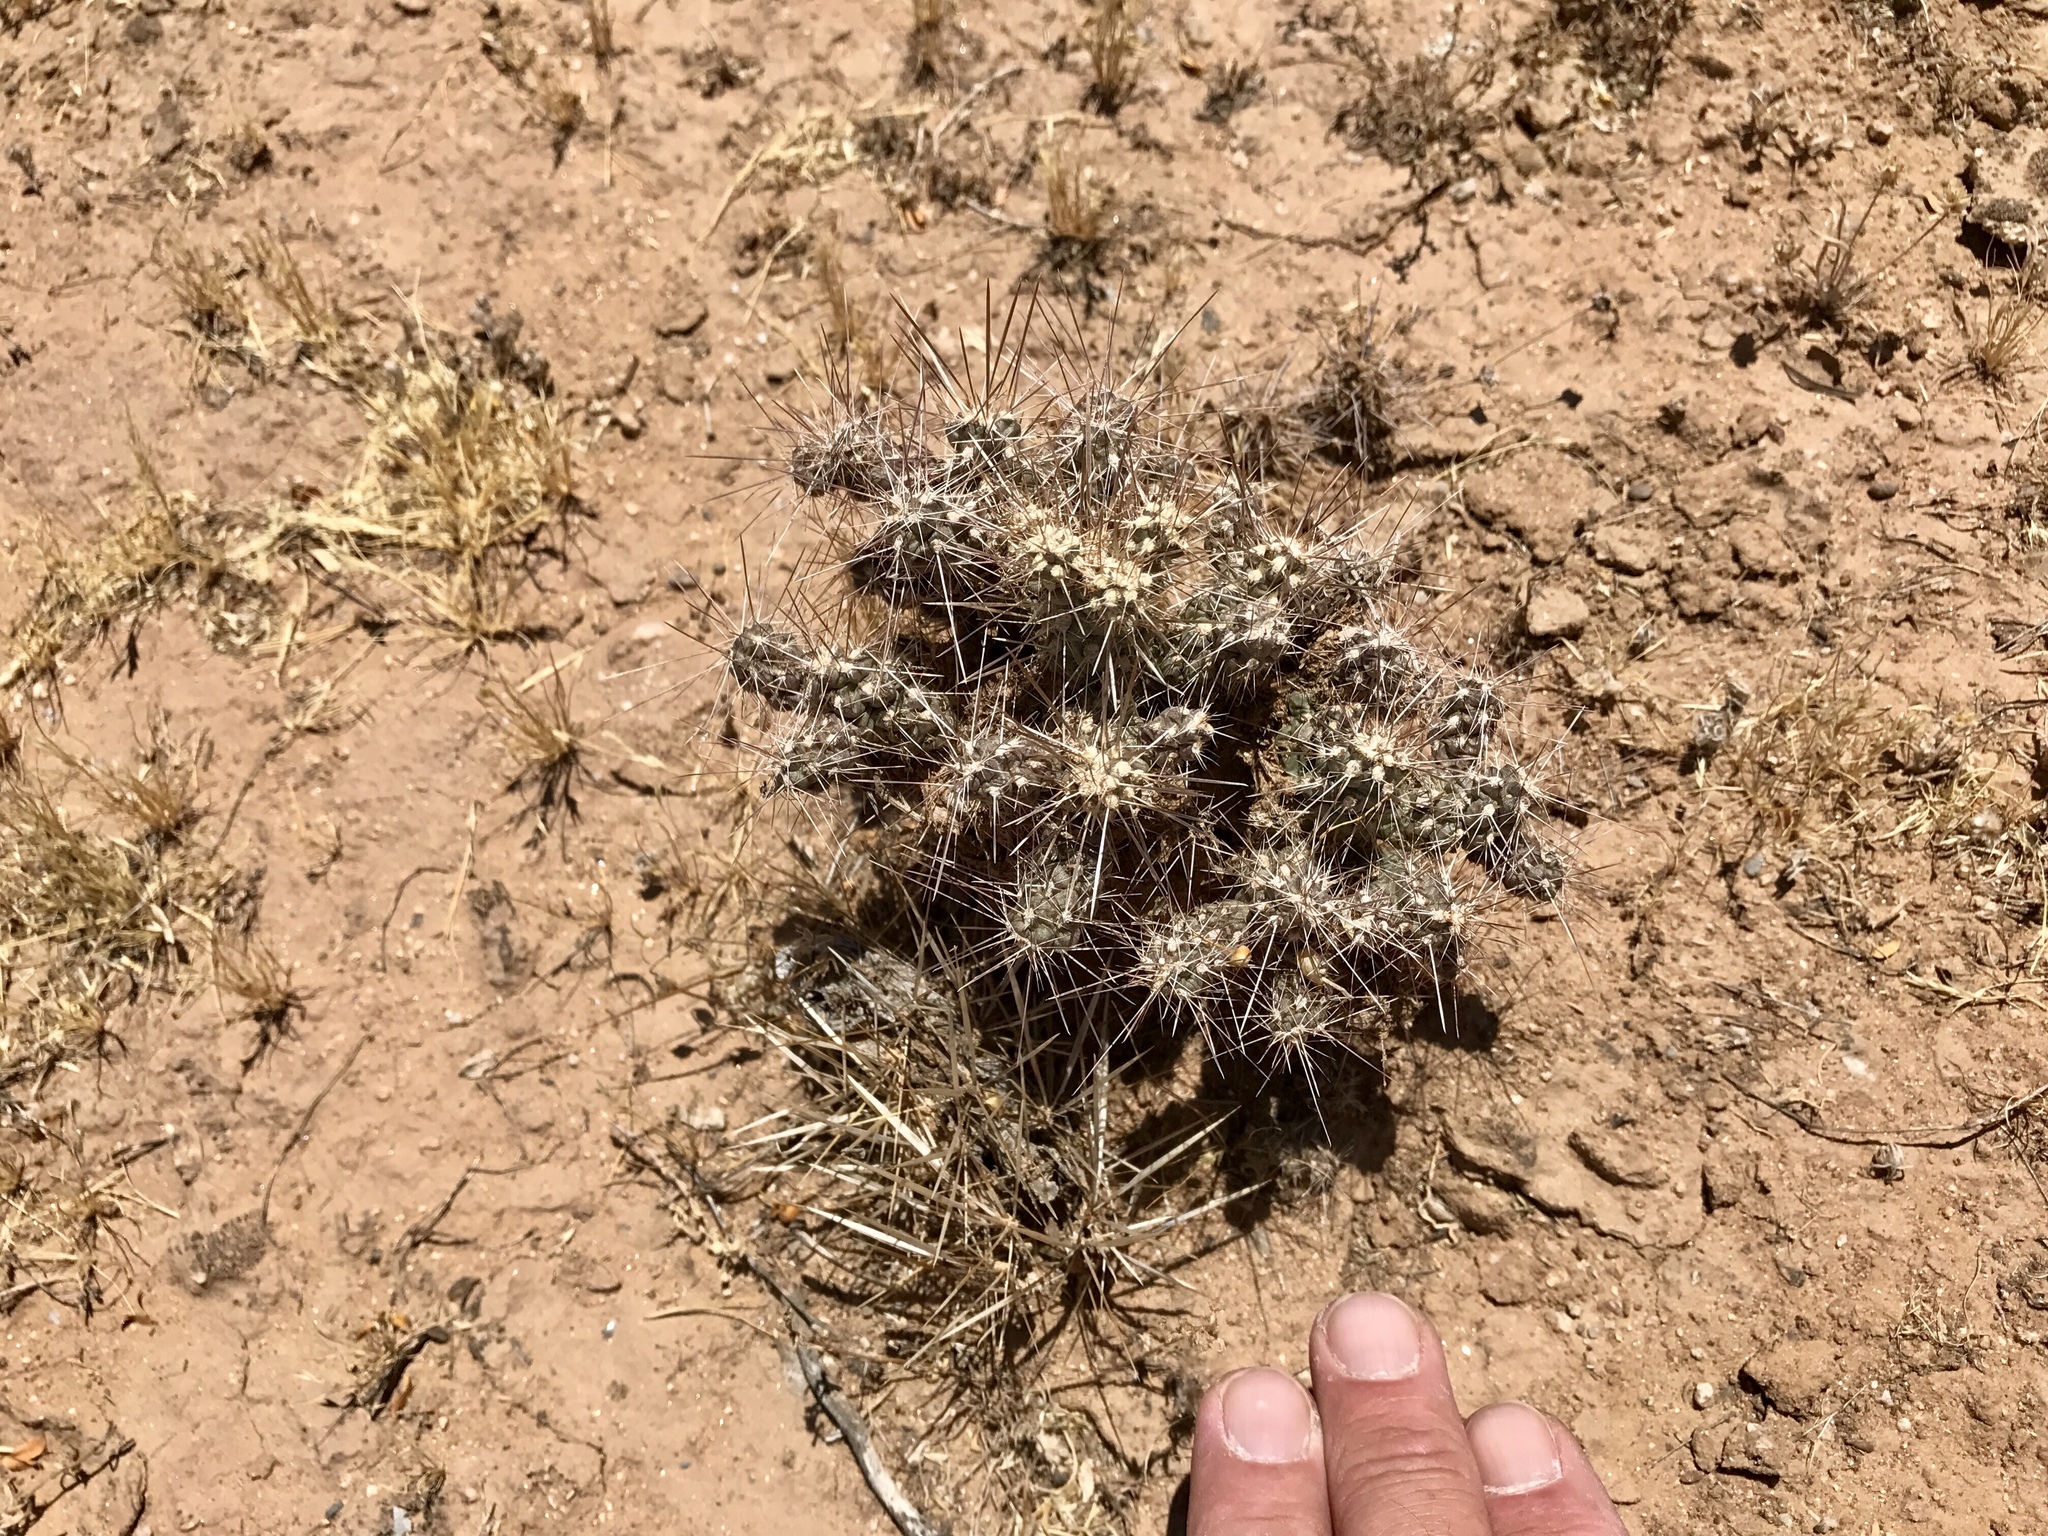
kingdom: Plantae
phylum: Tracheophyta
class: Magnoliopsida
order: Caryophyllales
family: Cactaceae
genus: Cylindropuntia
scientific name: Cylindropuntia fulgida
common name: Jumping cholla
